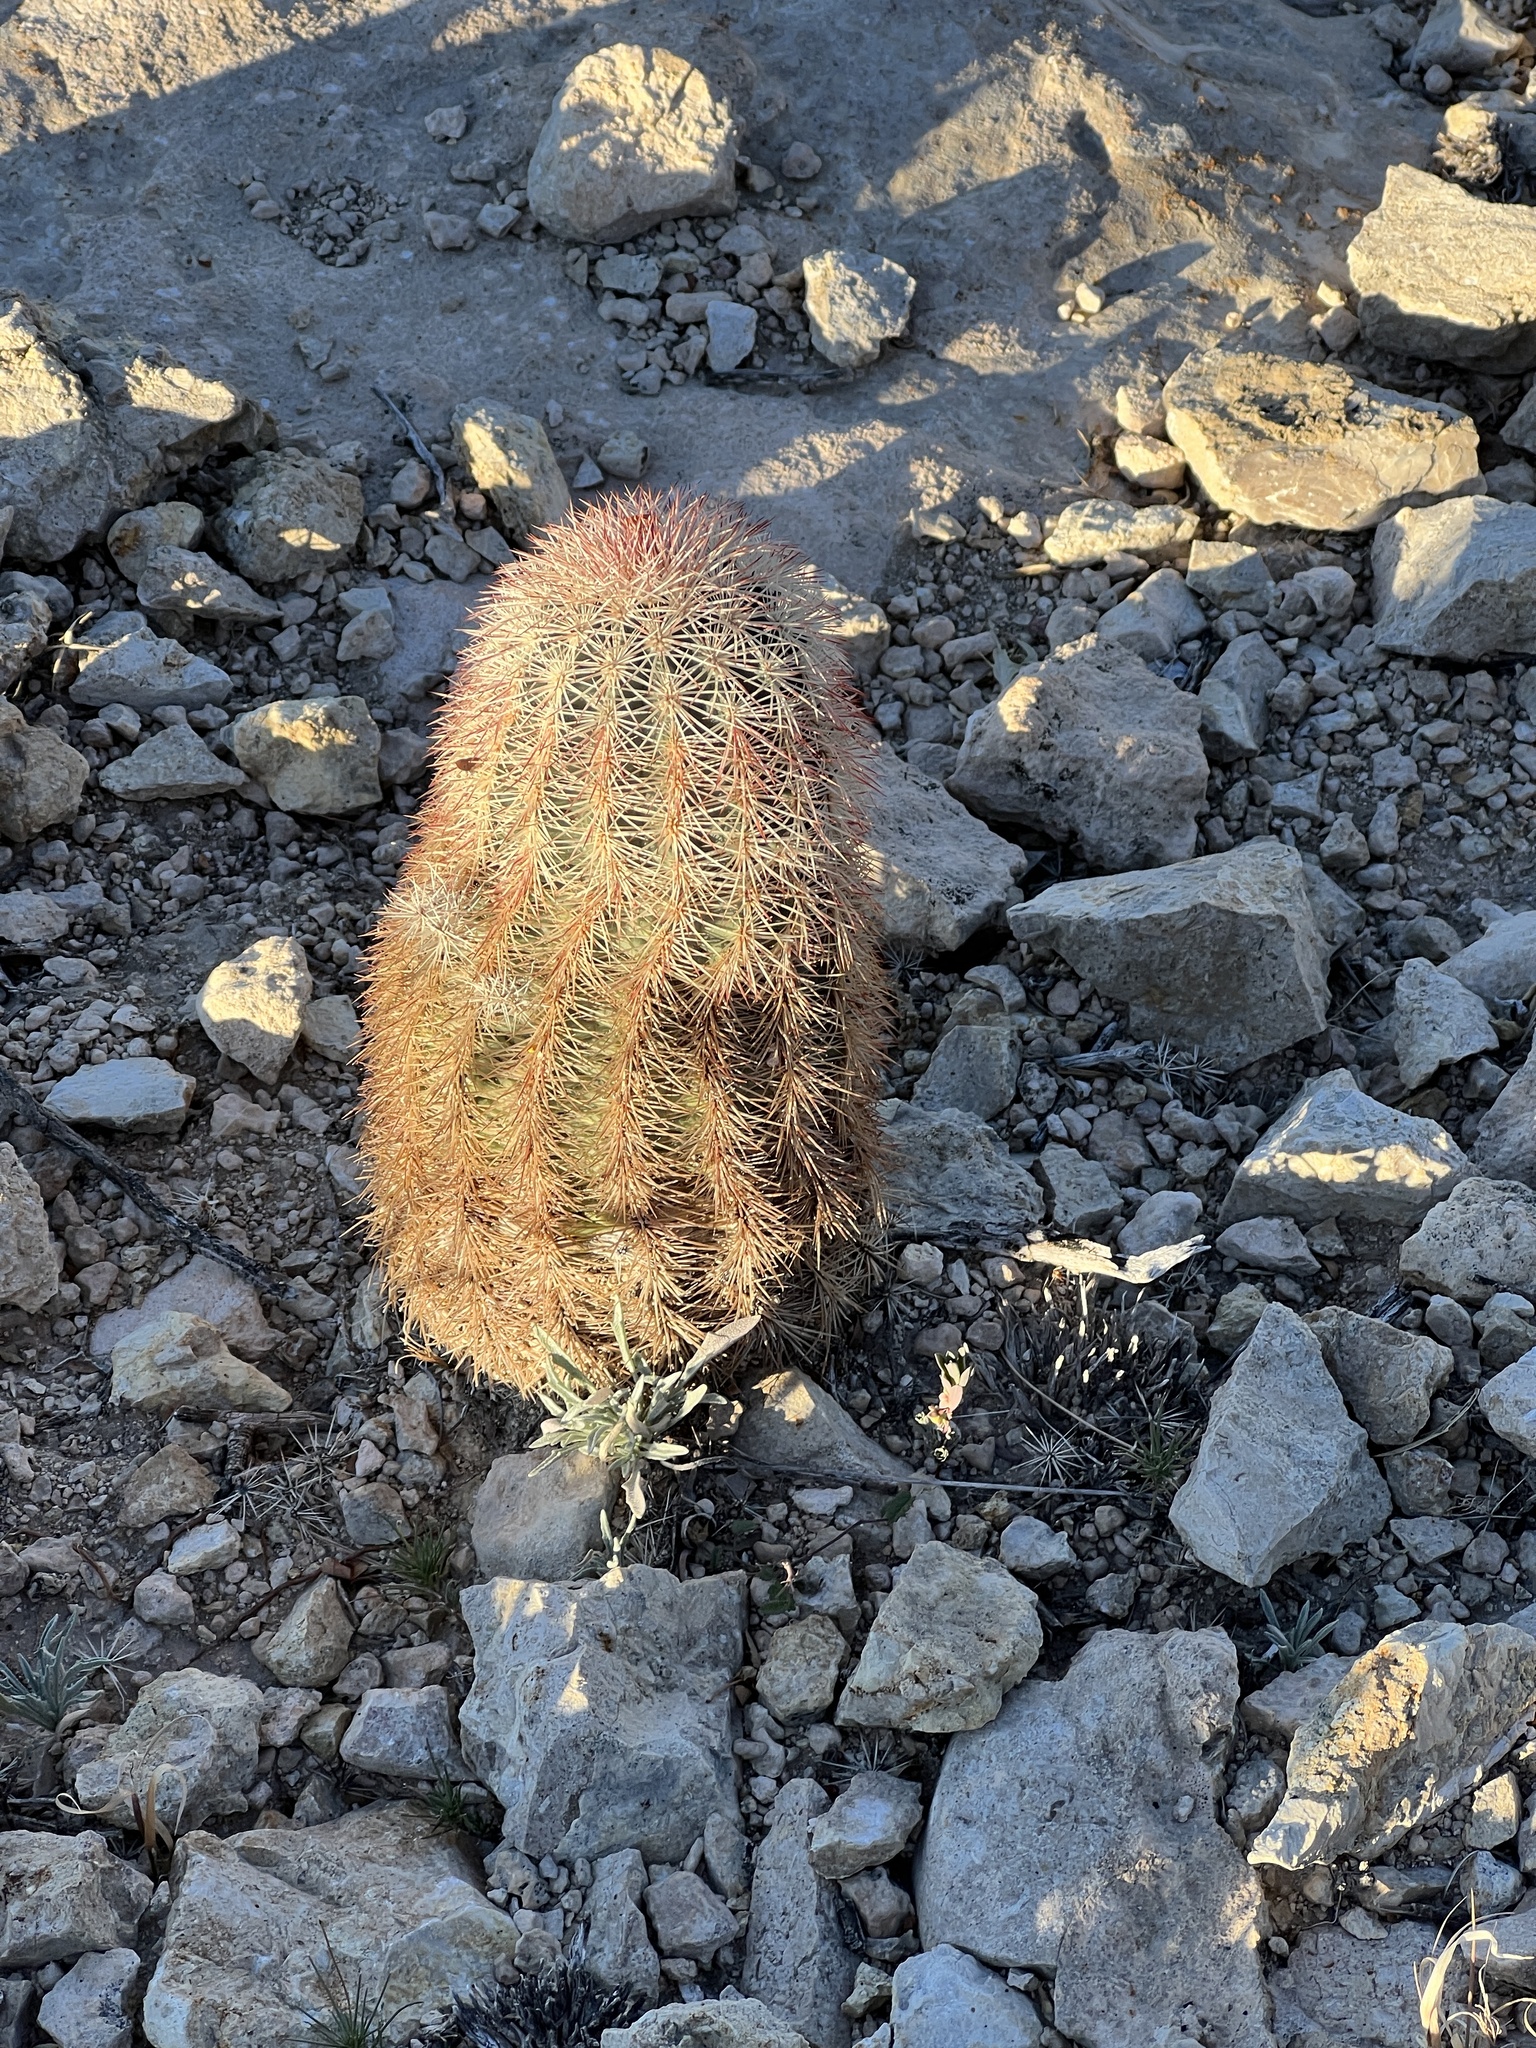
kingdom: Plantae
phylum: Tracheophyta
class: Magnoliopsida
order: Caryophyllales
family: Cactaceae
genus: Echinocereus
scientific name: Echinocereus dasyacanthus
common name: Spiny hedgehog cactus
